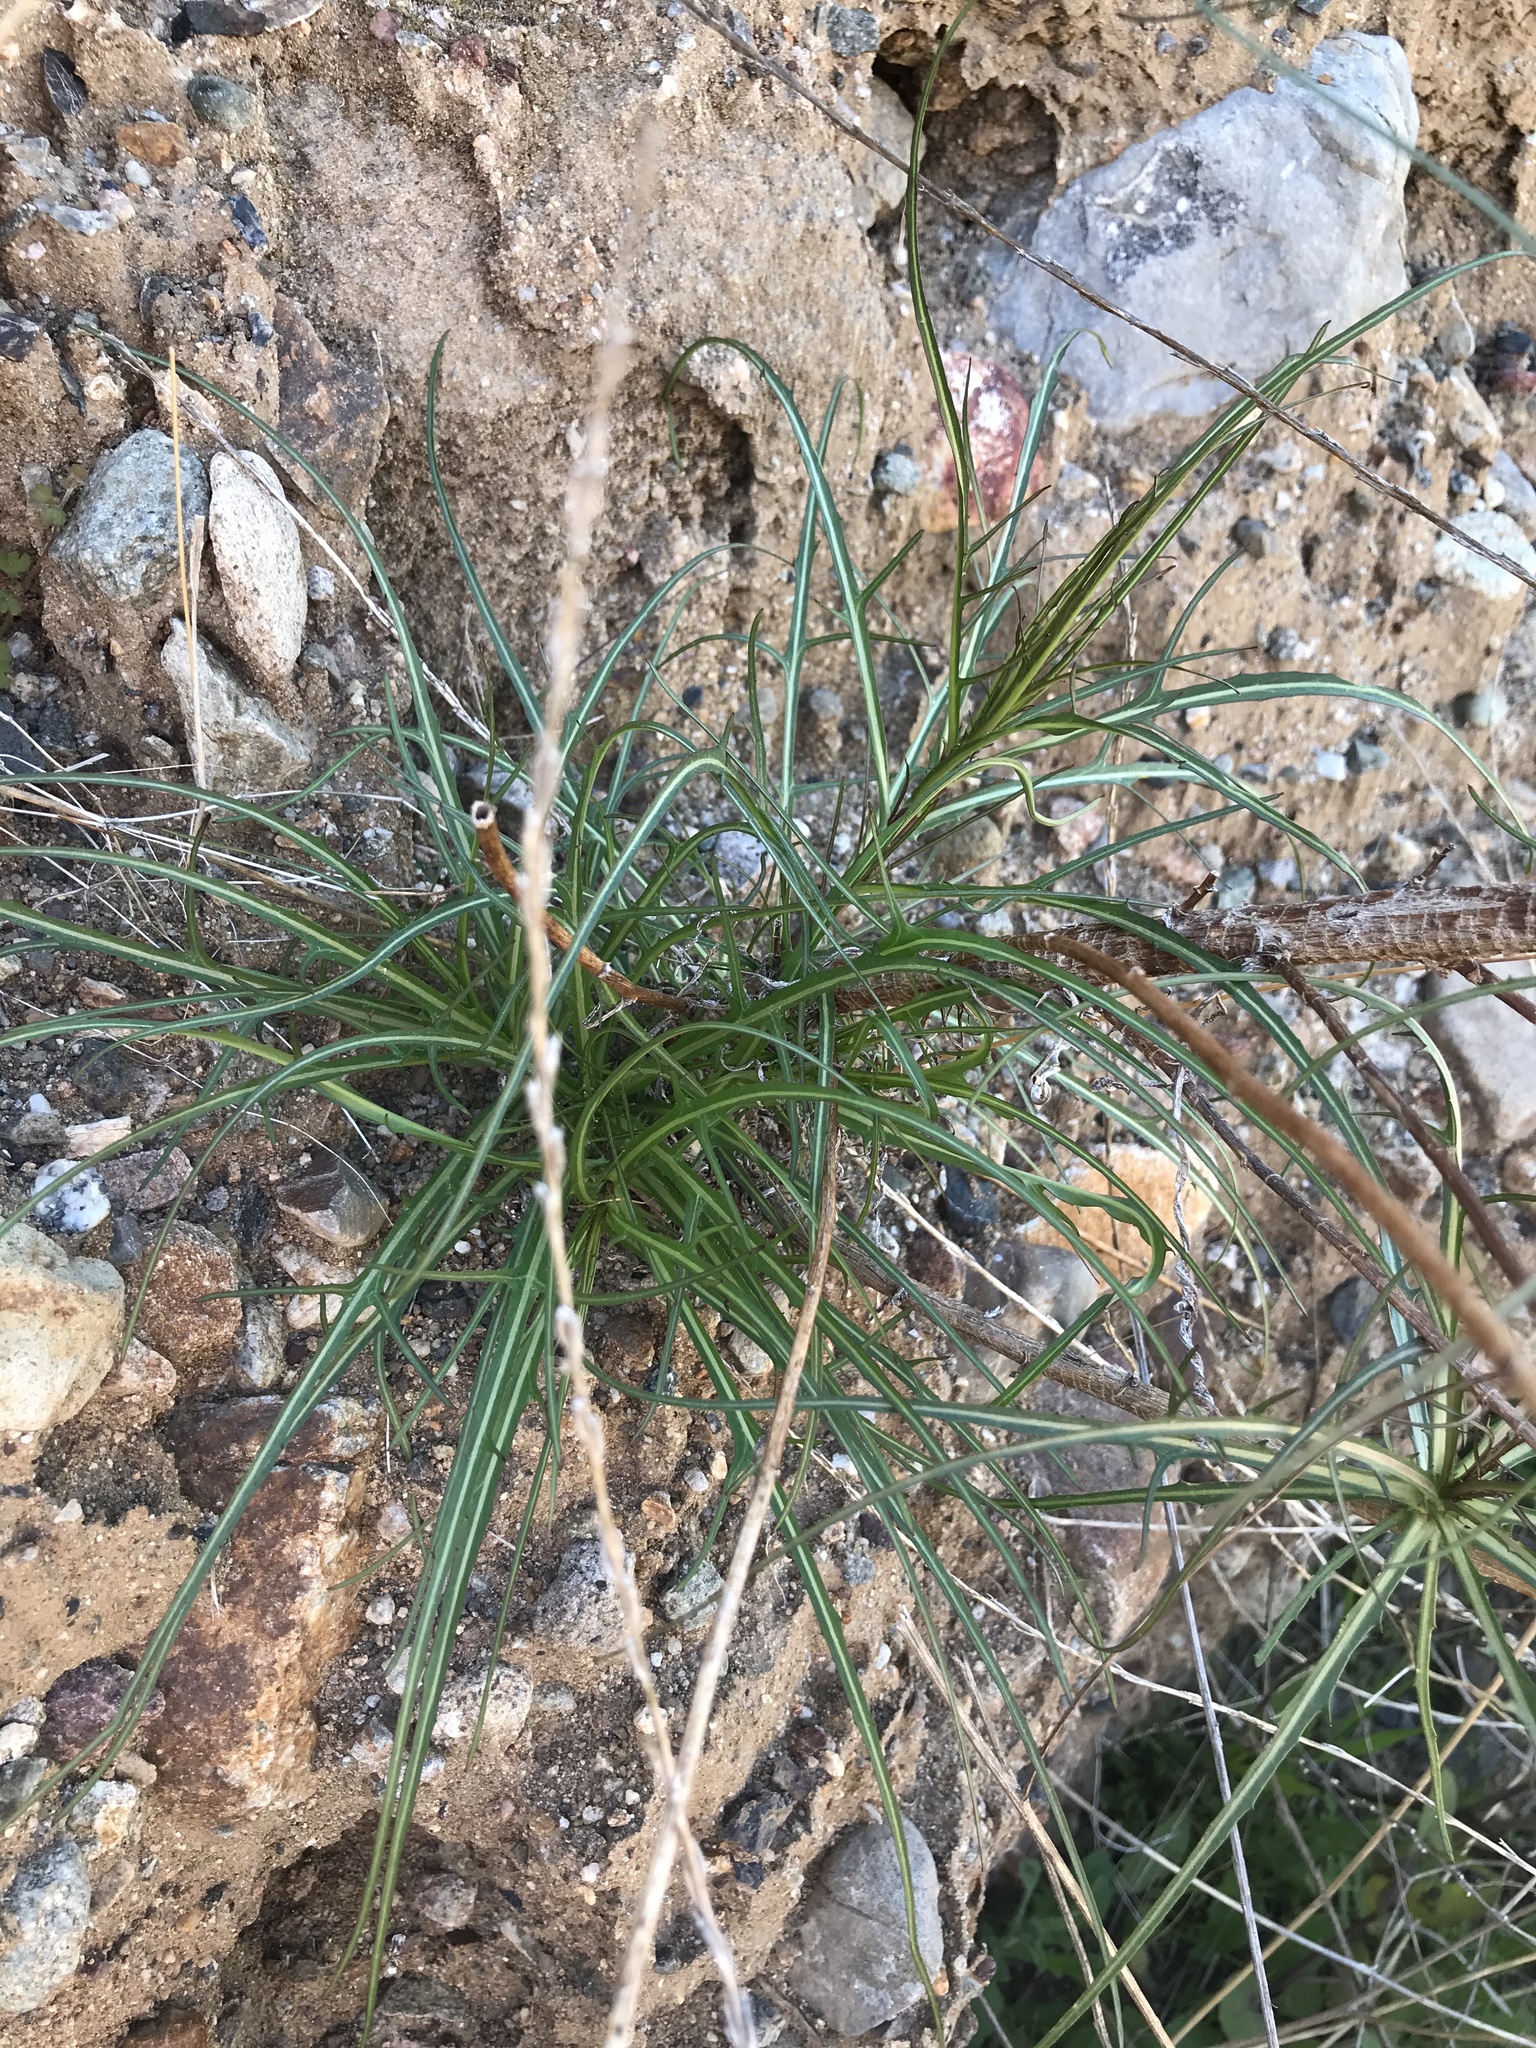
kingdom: Plantae
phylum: Tracheophyta
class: Magnoliopsida
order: Asterales
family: Asteraceae
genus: Malacothrix
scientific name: Malacothrix saxatilis
